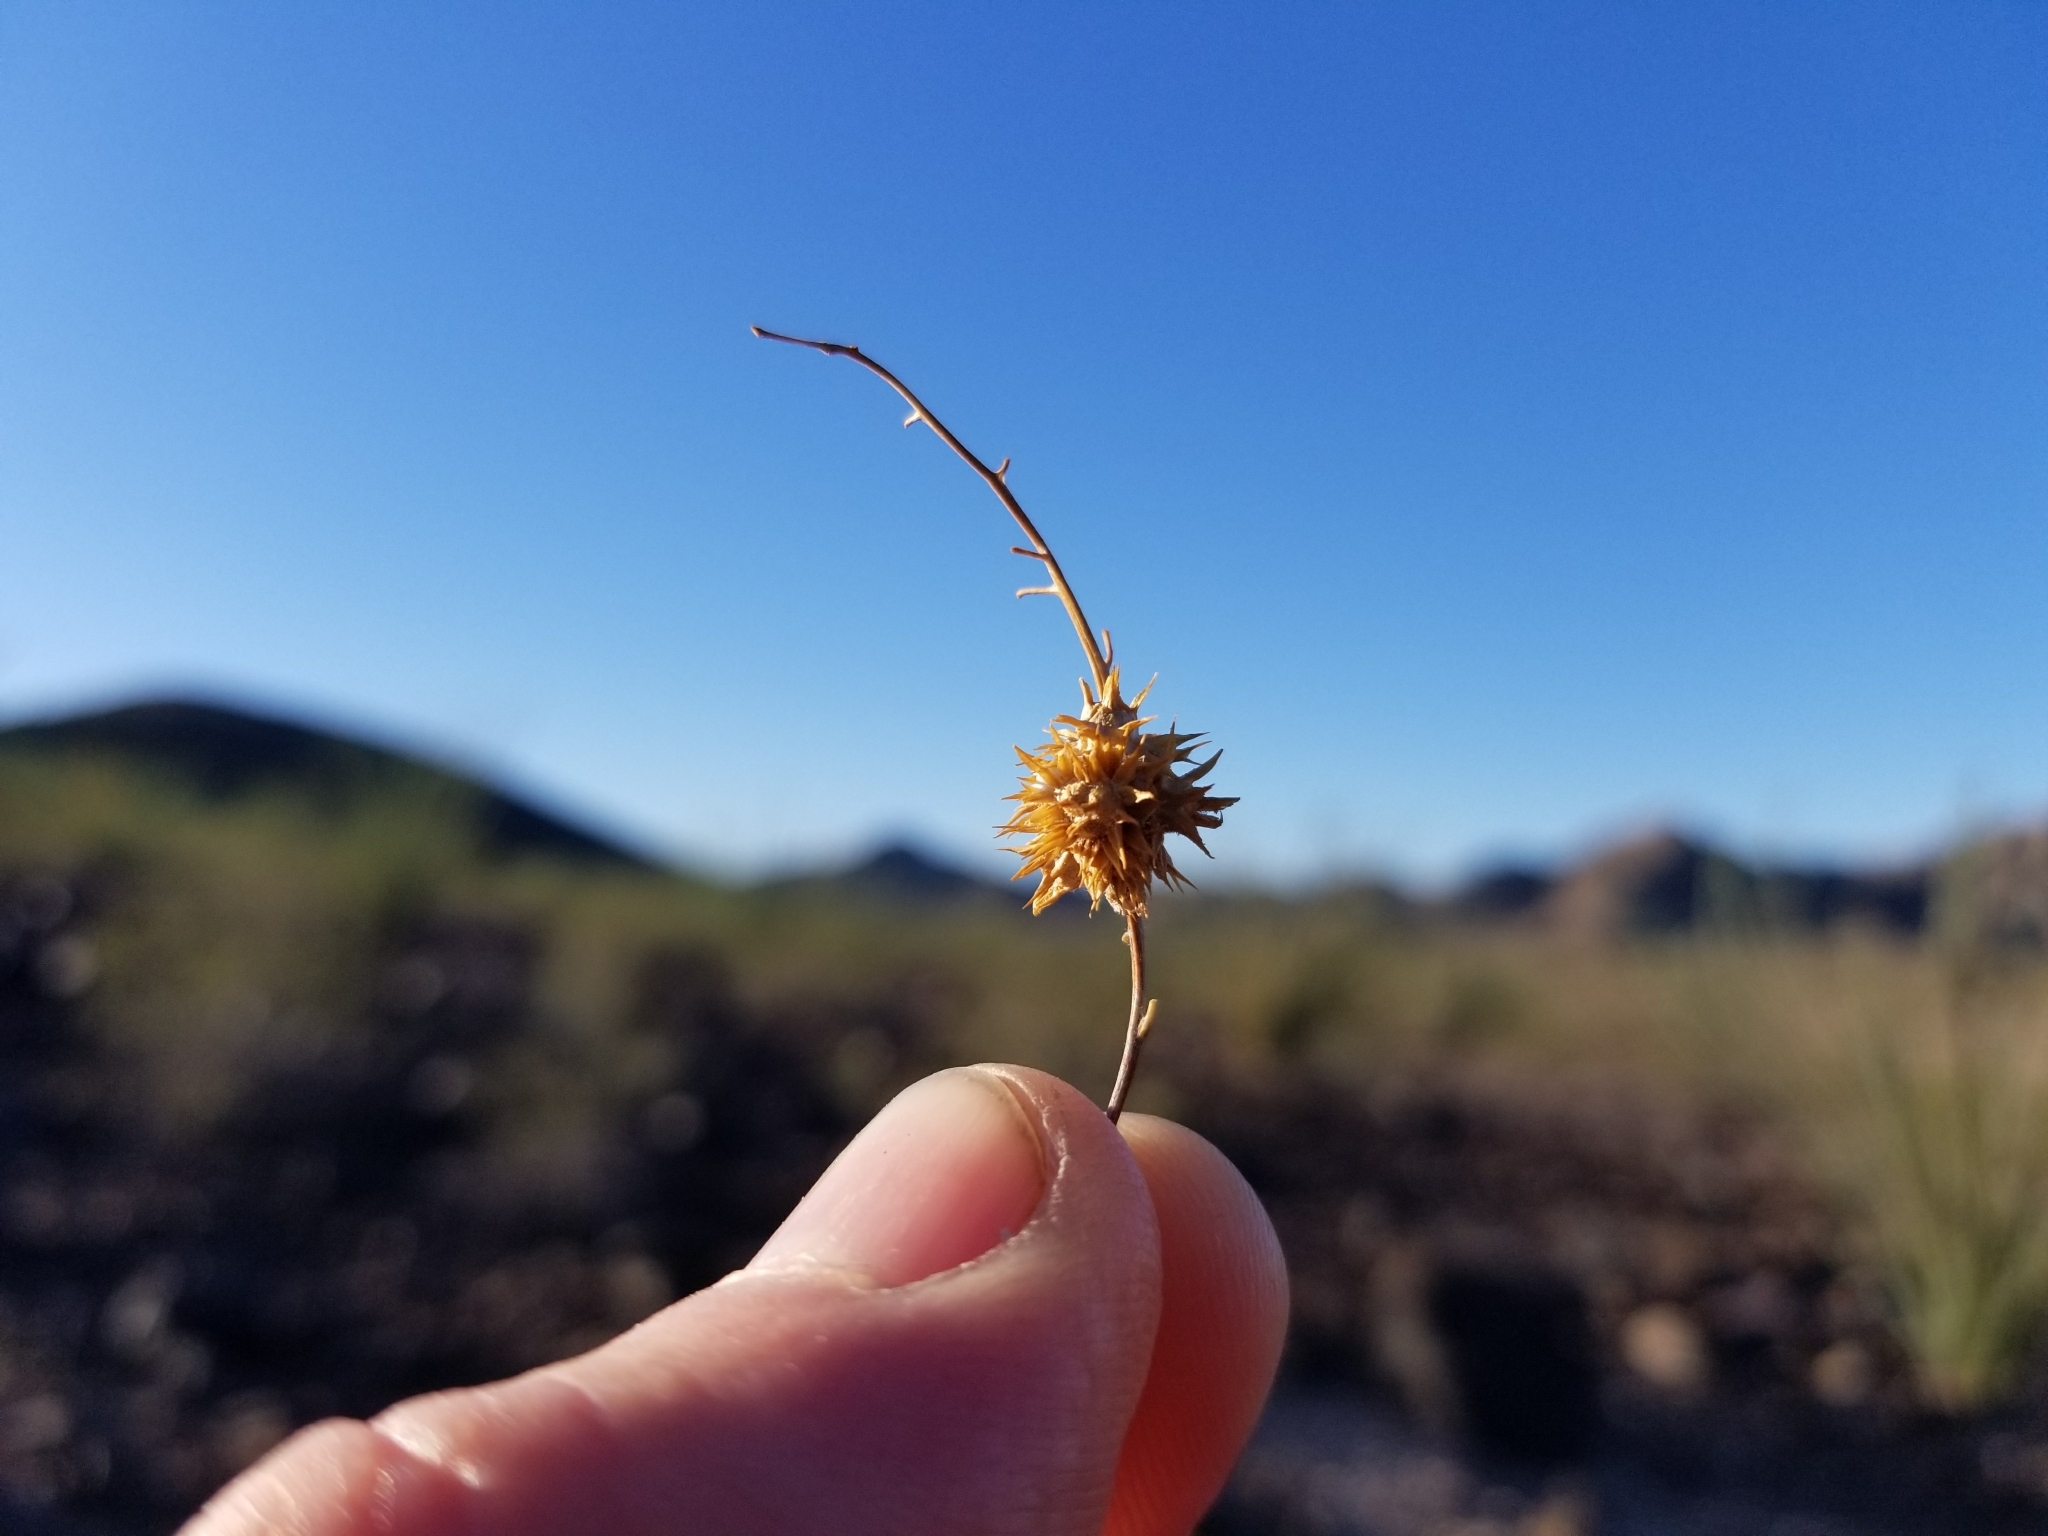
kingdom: Plantae
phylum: Tracheophyta
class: Magnoliopsida
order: Asterales
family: Asteraceae
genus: Ambrosia
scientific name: Ambrosia deltoidea
